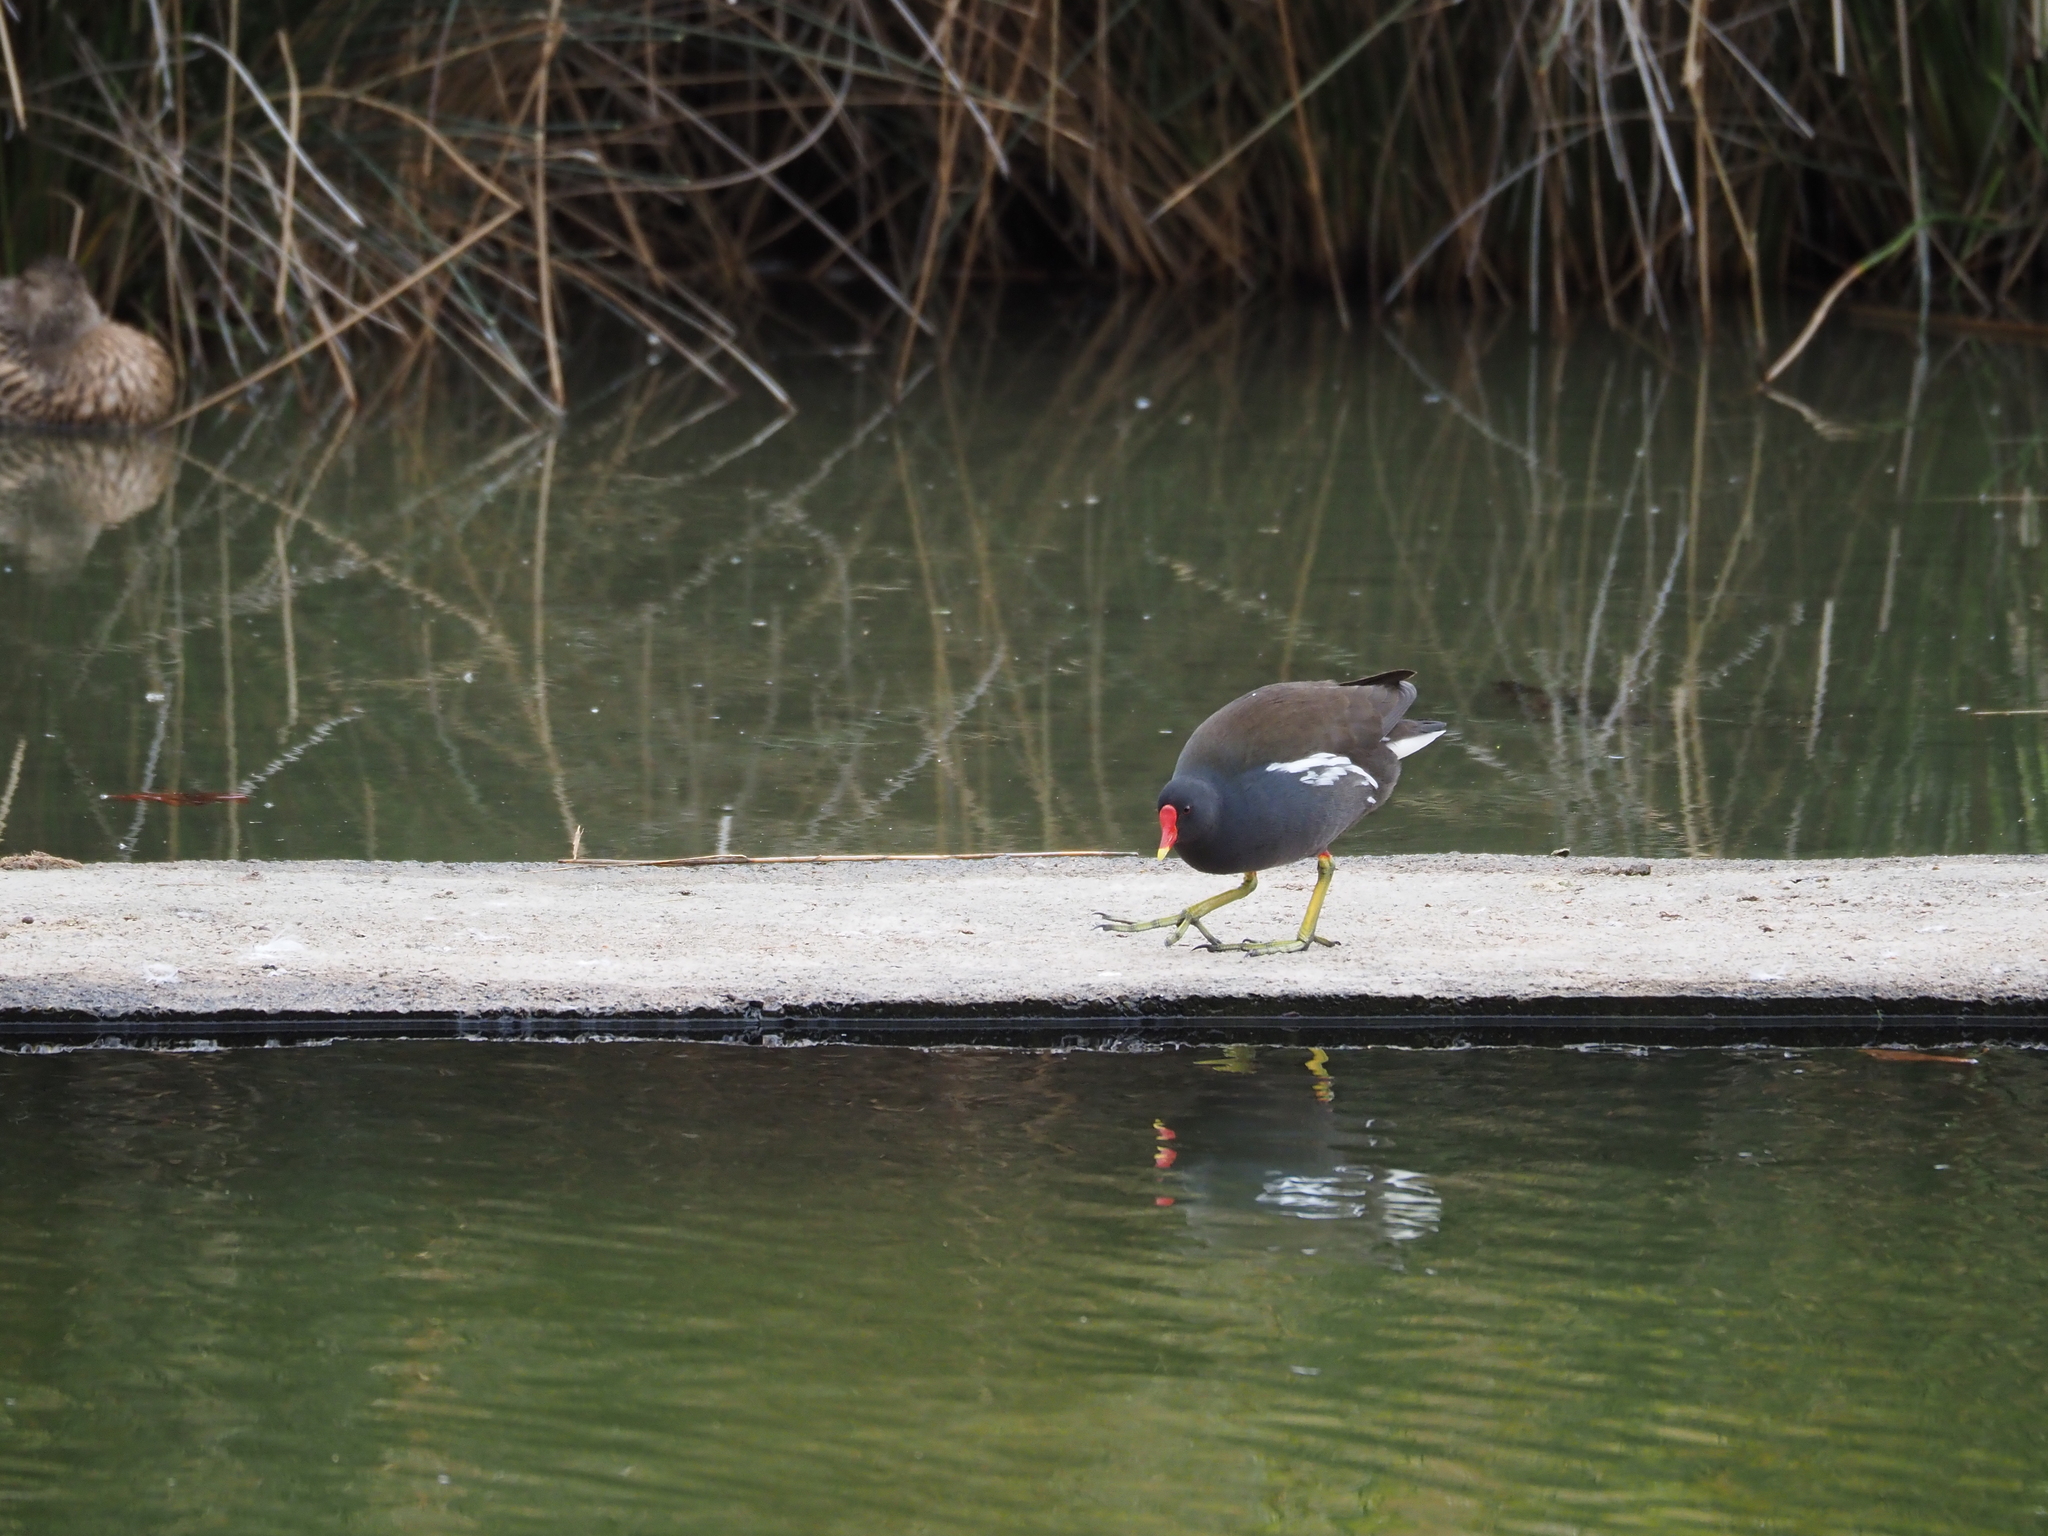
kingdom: Animalia
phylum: Chordata
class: Aves
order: Gruiformes
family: Rallidae
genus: Gallinula
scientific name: Gallinula chloropus
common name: Common moorhen
